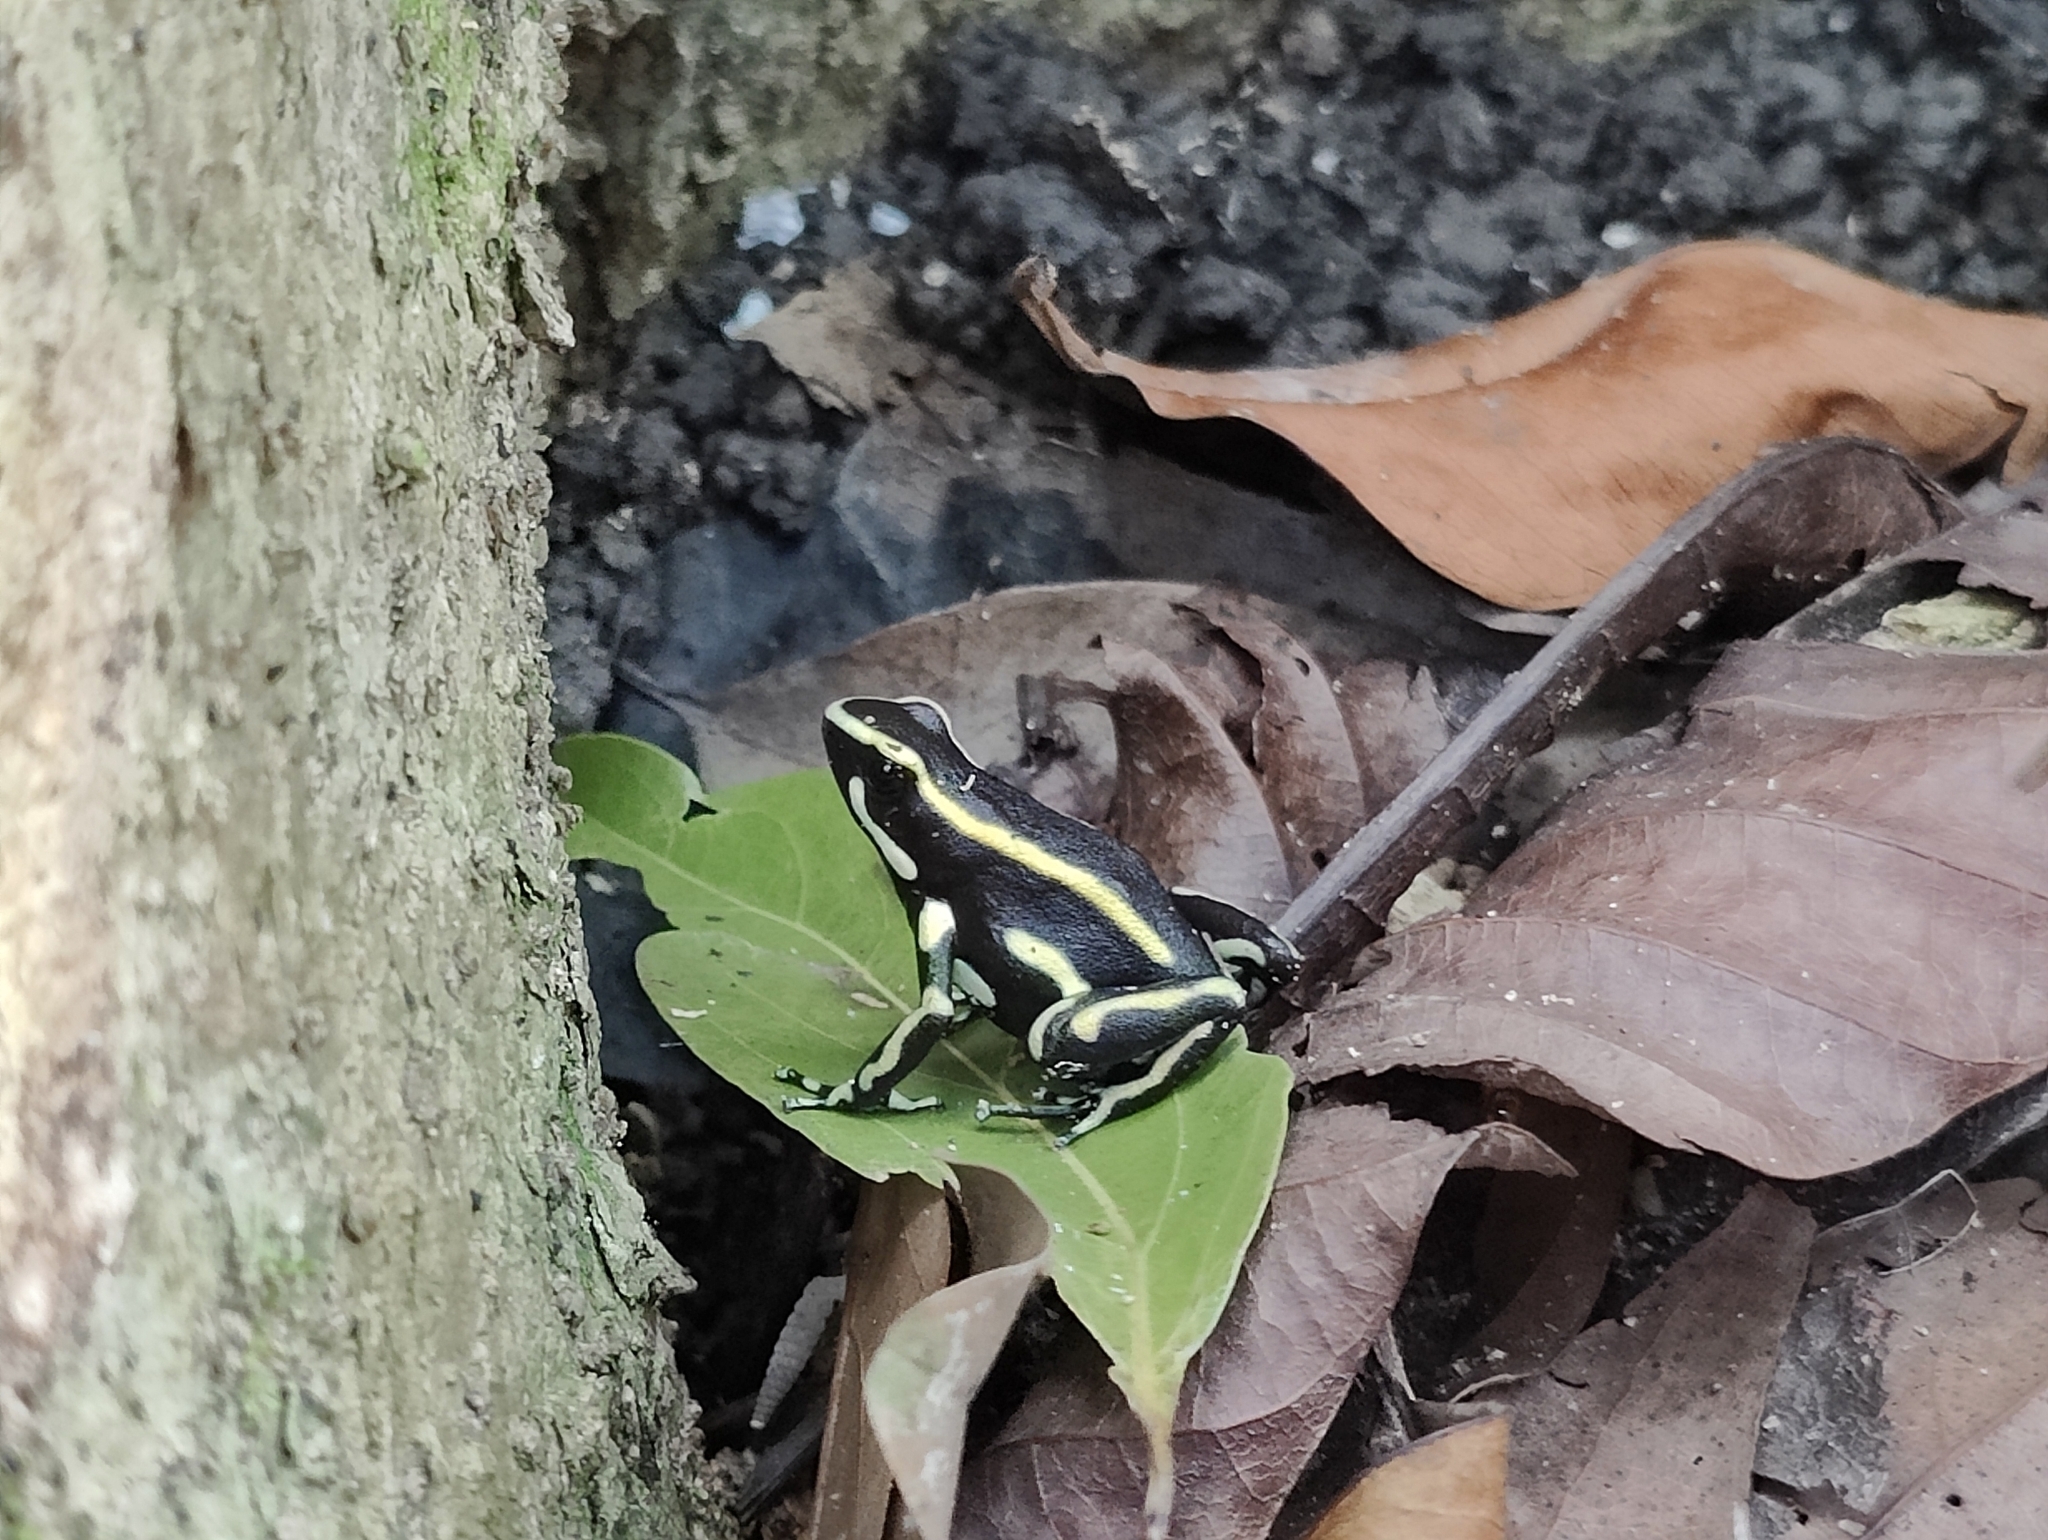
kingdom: Animalia
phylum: Chordata
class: Amphibia
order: Anura
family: Dendrobatidae
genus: Dendrobates
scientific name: Dendrobates truncatus
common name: Yellow-striped poison frog
